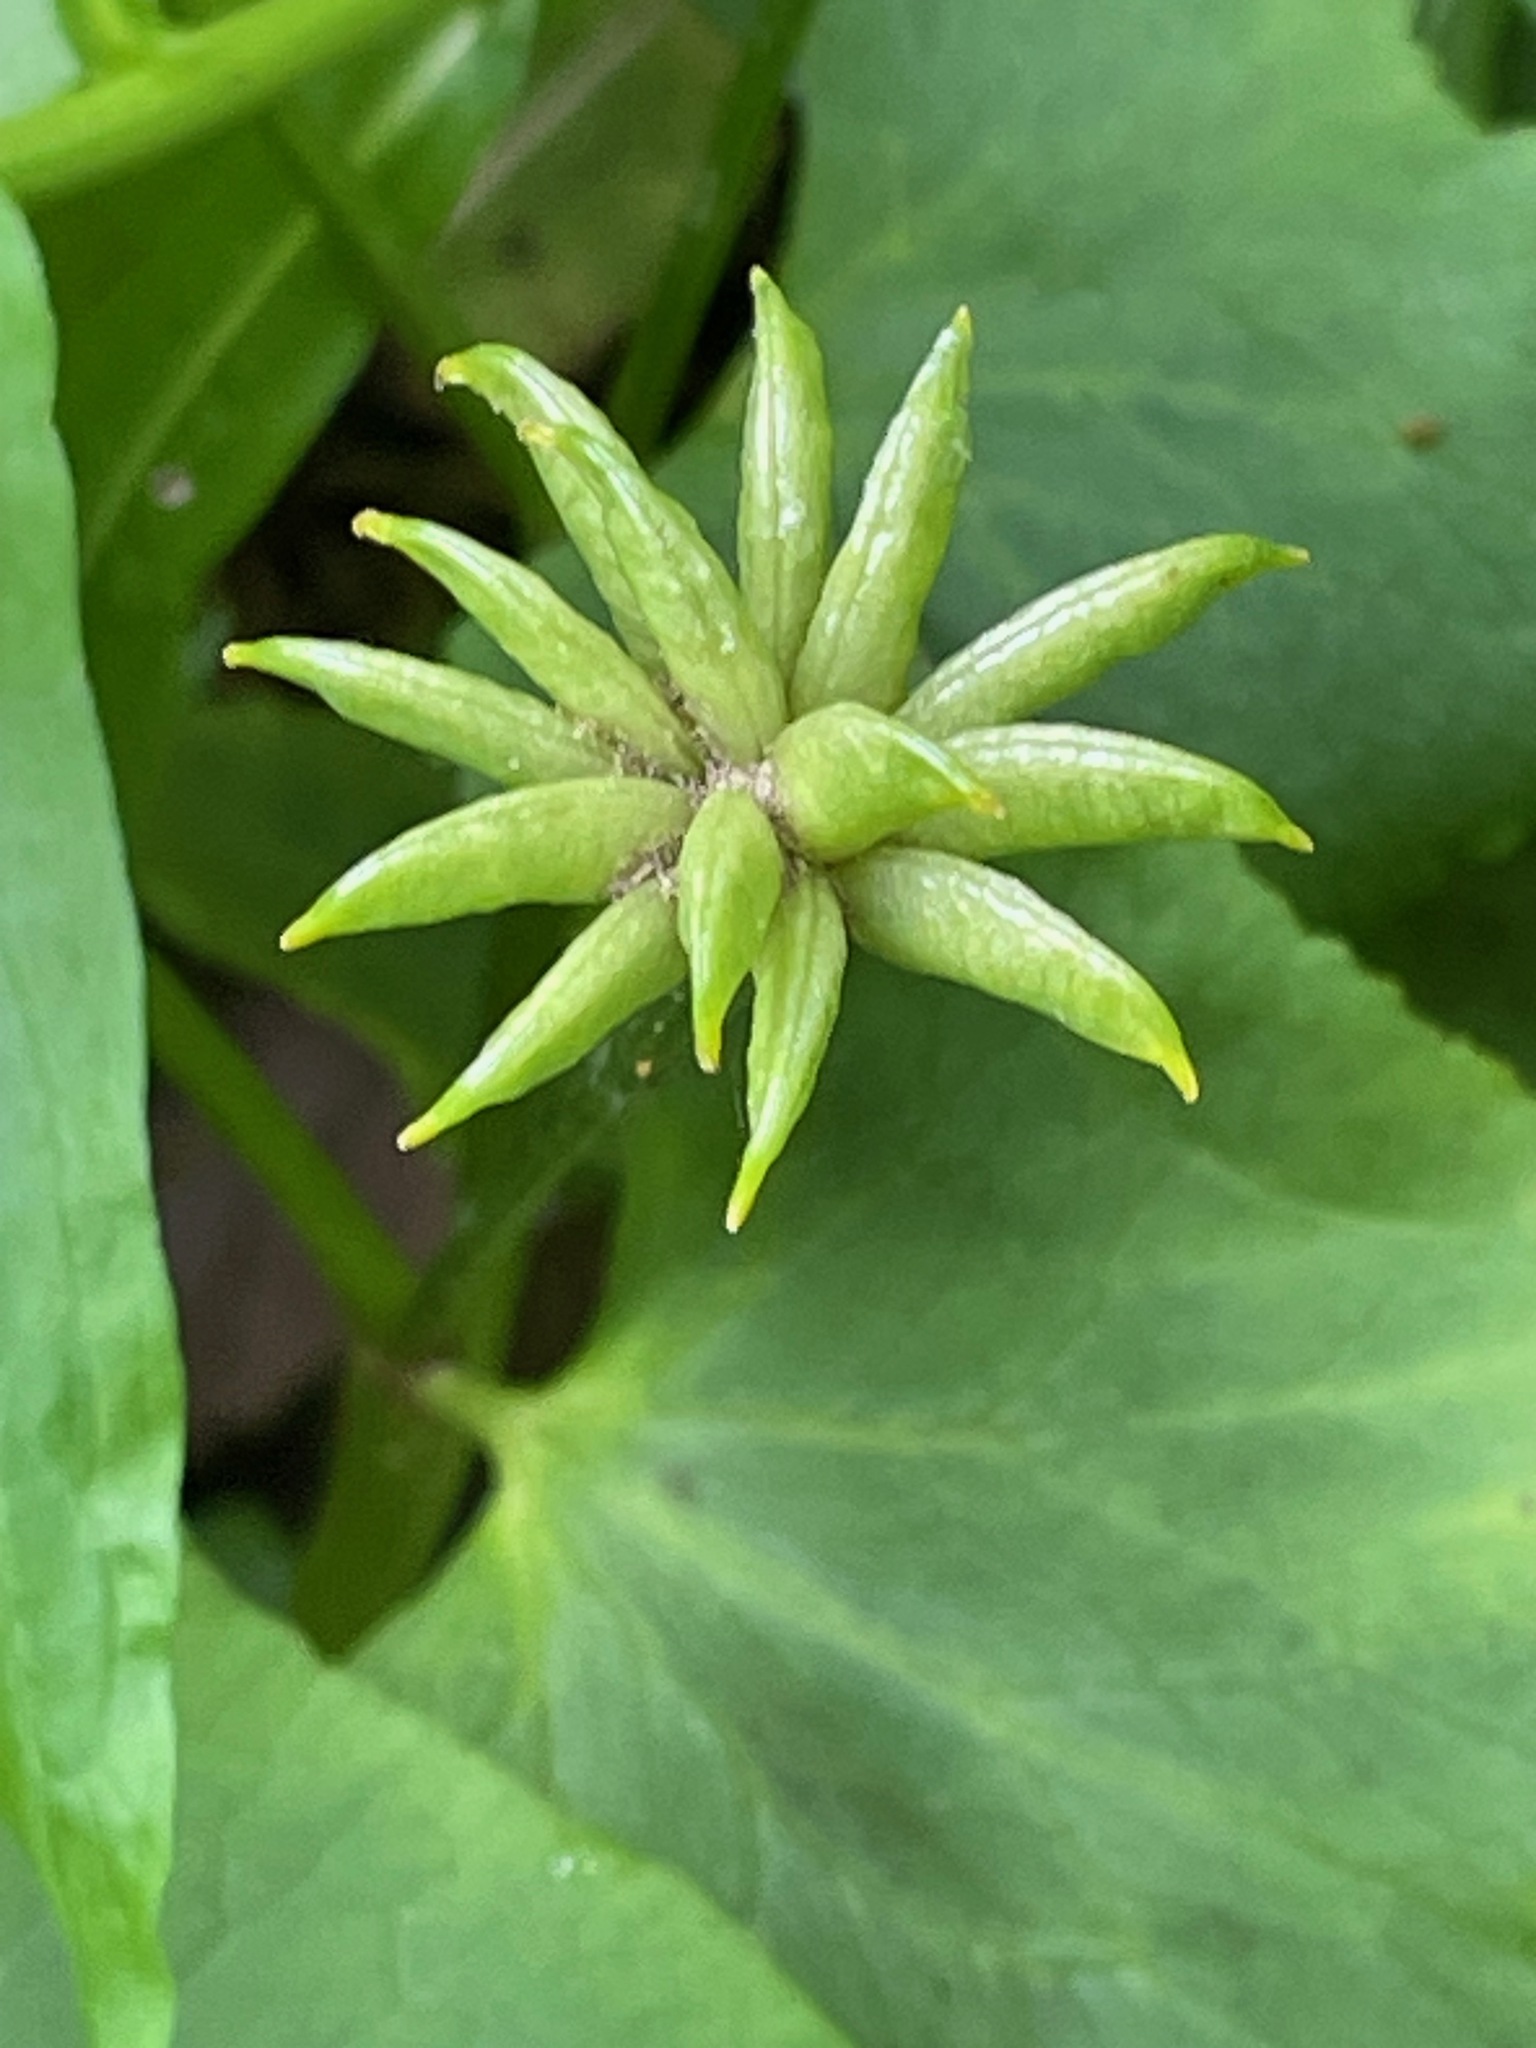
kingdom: Plantae
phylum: Tracheophyta
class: Magnoliopsida
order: Ranunculales
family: Ranunculaceae
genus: Caltha
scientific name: Caltha palustris
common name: Marsh marigold
